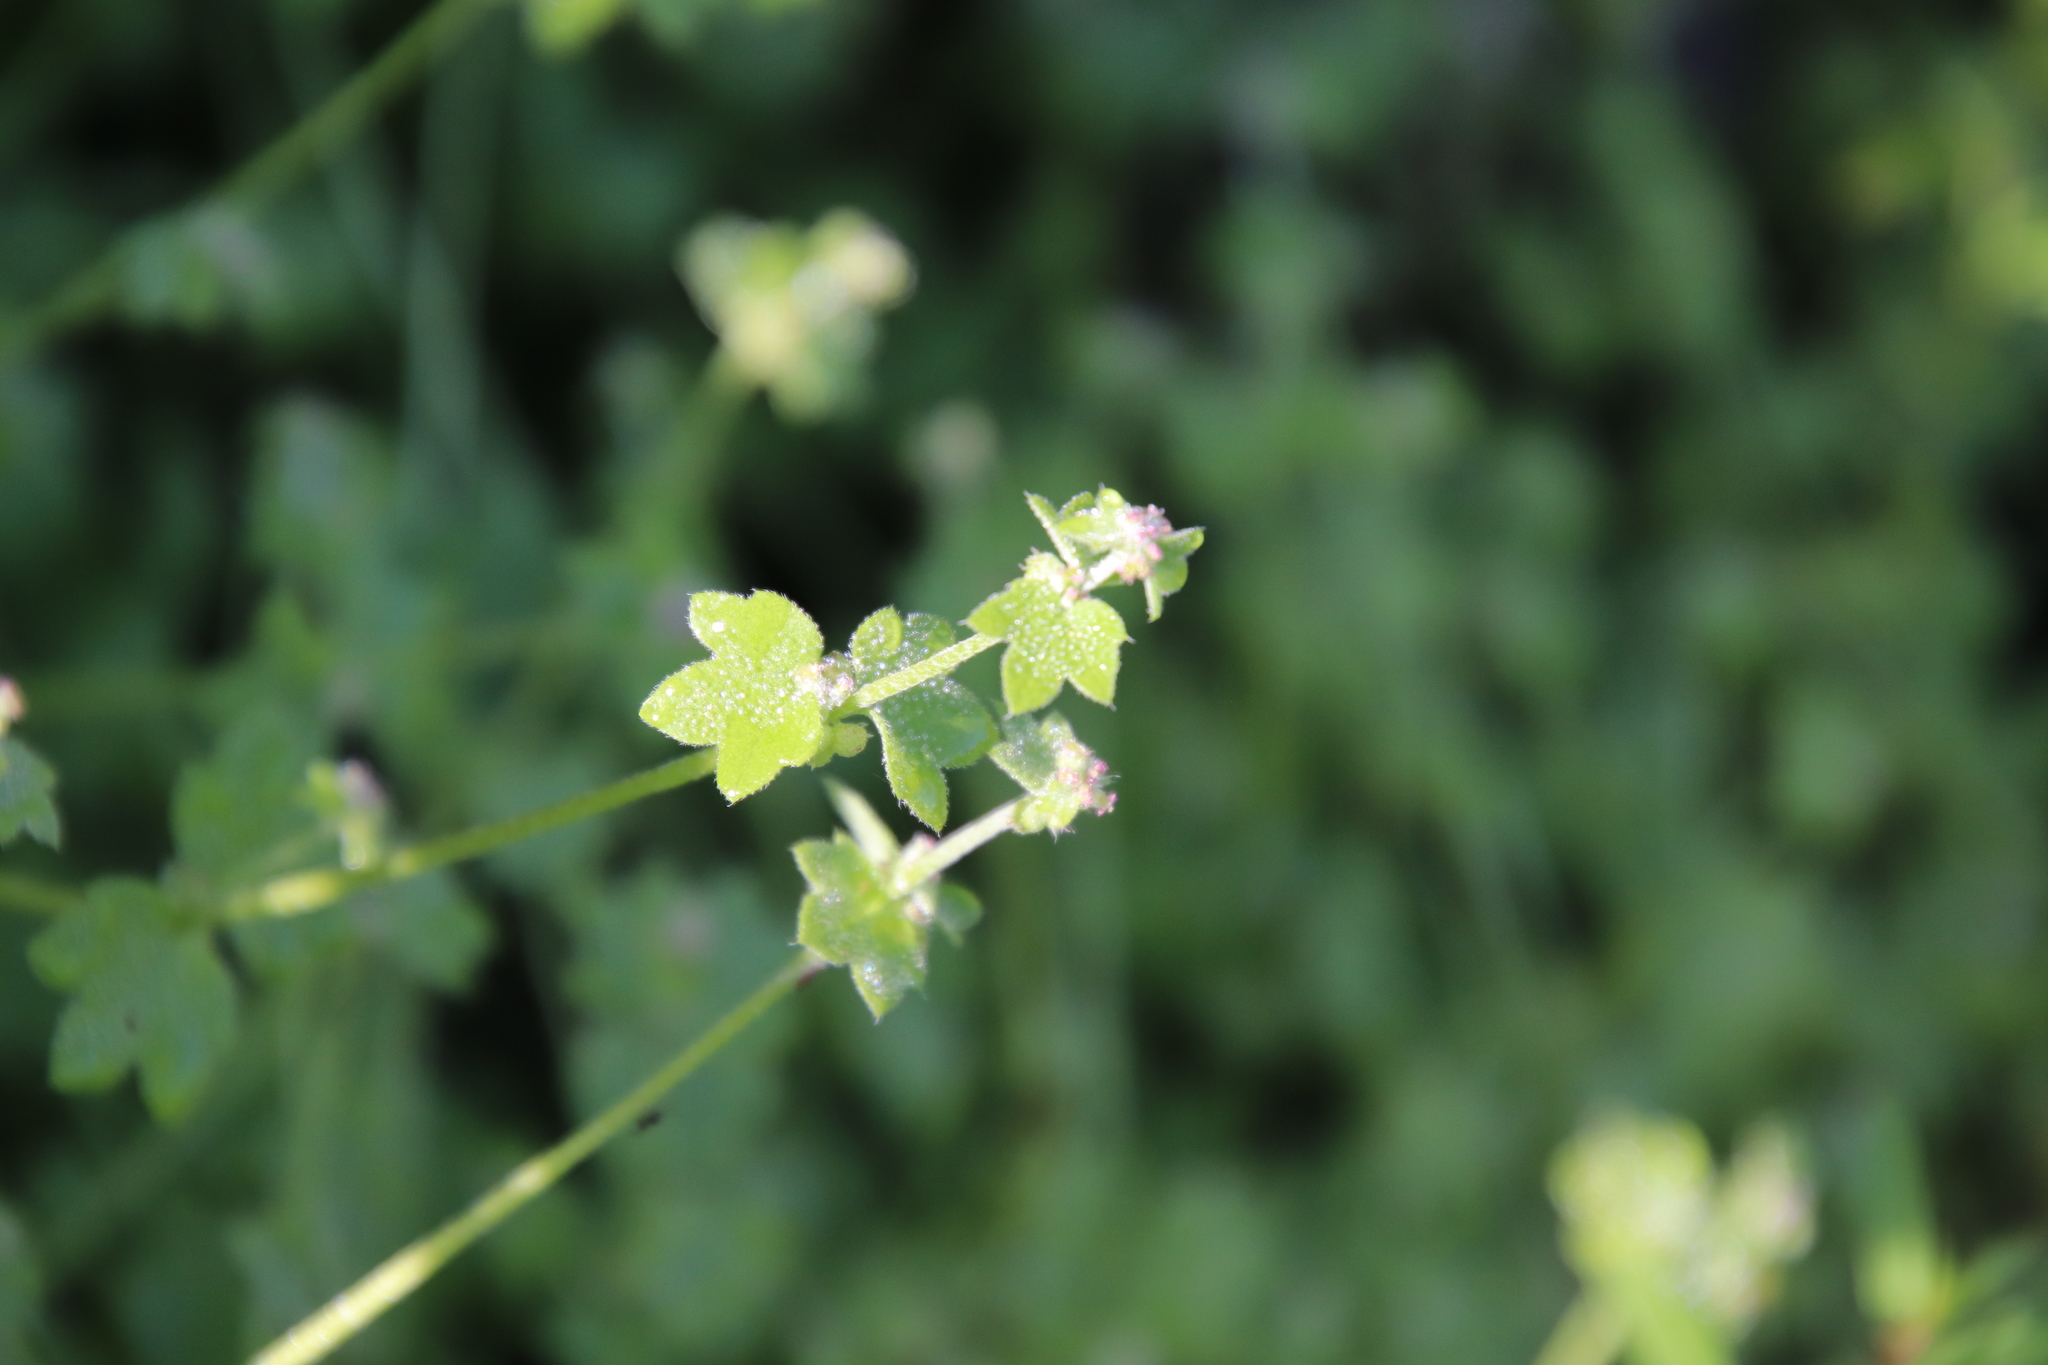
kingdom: Plantae
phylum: Tracheophyta
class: Magnoliopsida
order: Apiales
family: Apiaceae
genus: Bowlesia
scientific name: Bowlesia incana
